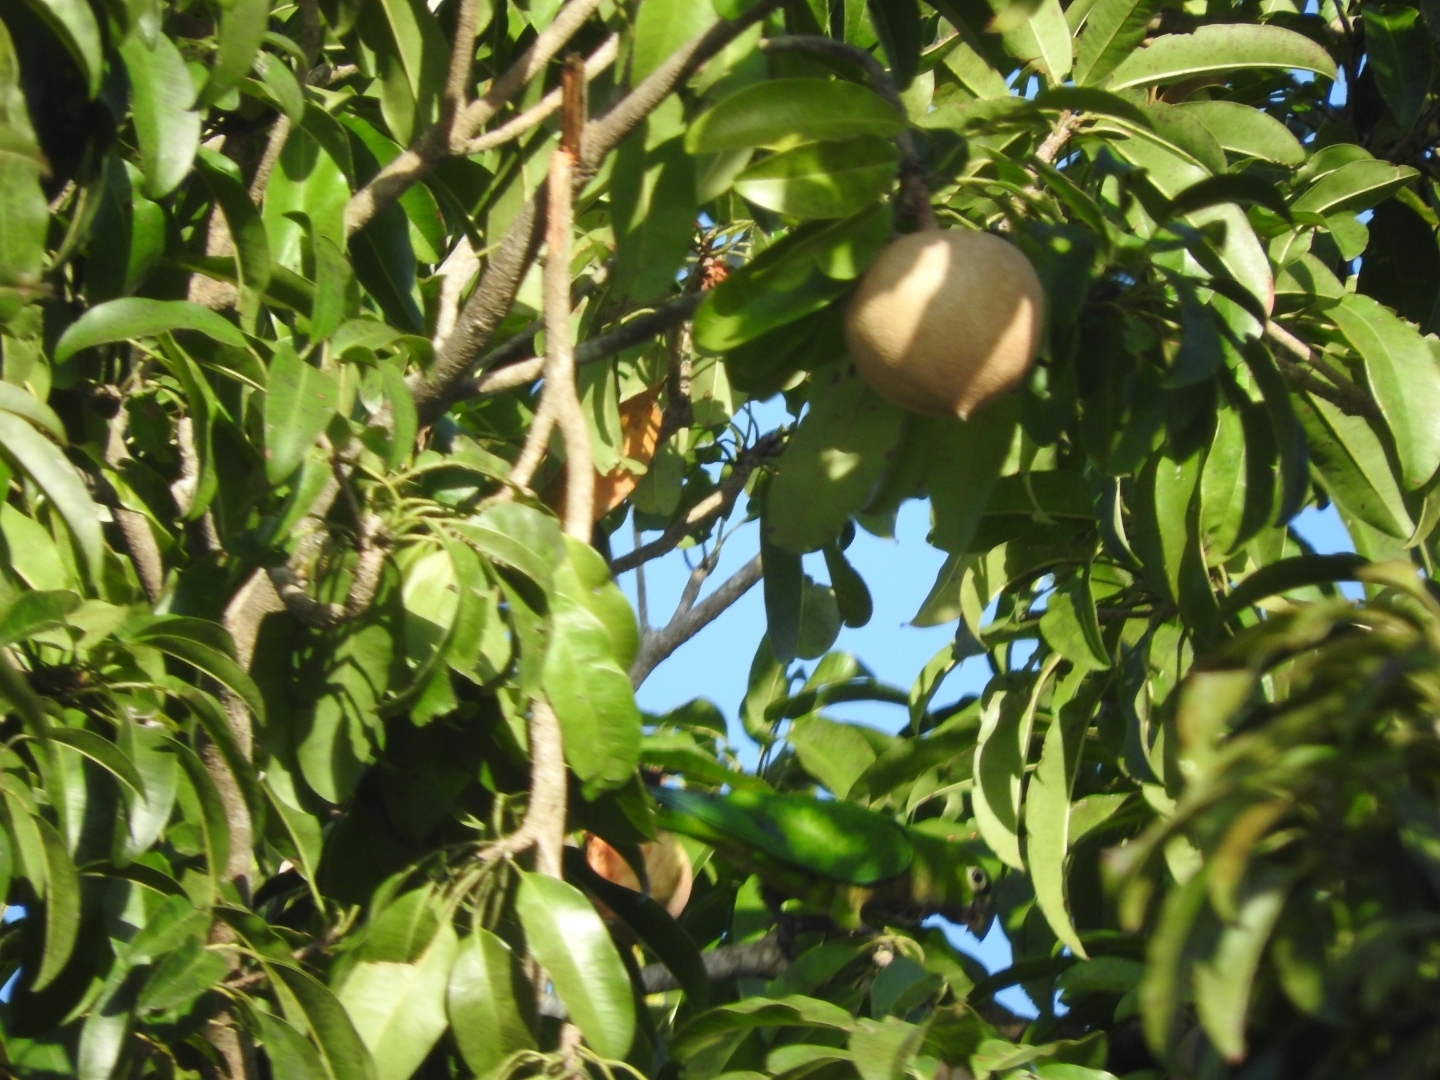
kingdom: Animalia
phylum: Chordata
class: Aves
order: Psittaciformes
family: Psittacidae
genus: Aratinga
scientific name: Aratinga nana
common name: Olive-throated parakeet
